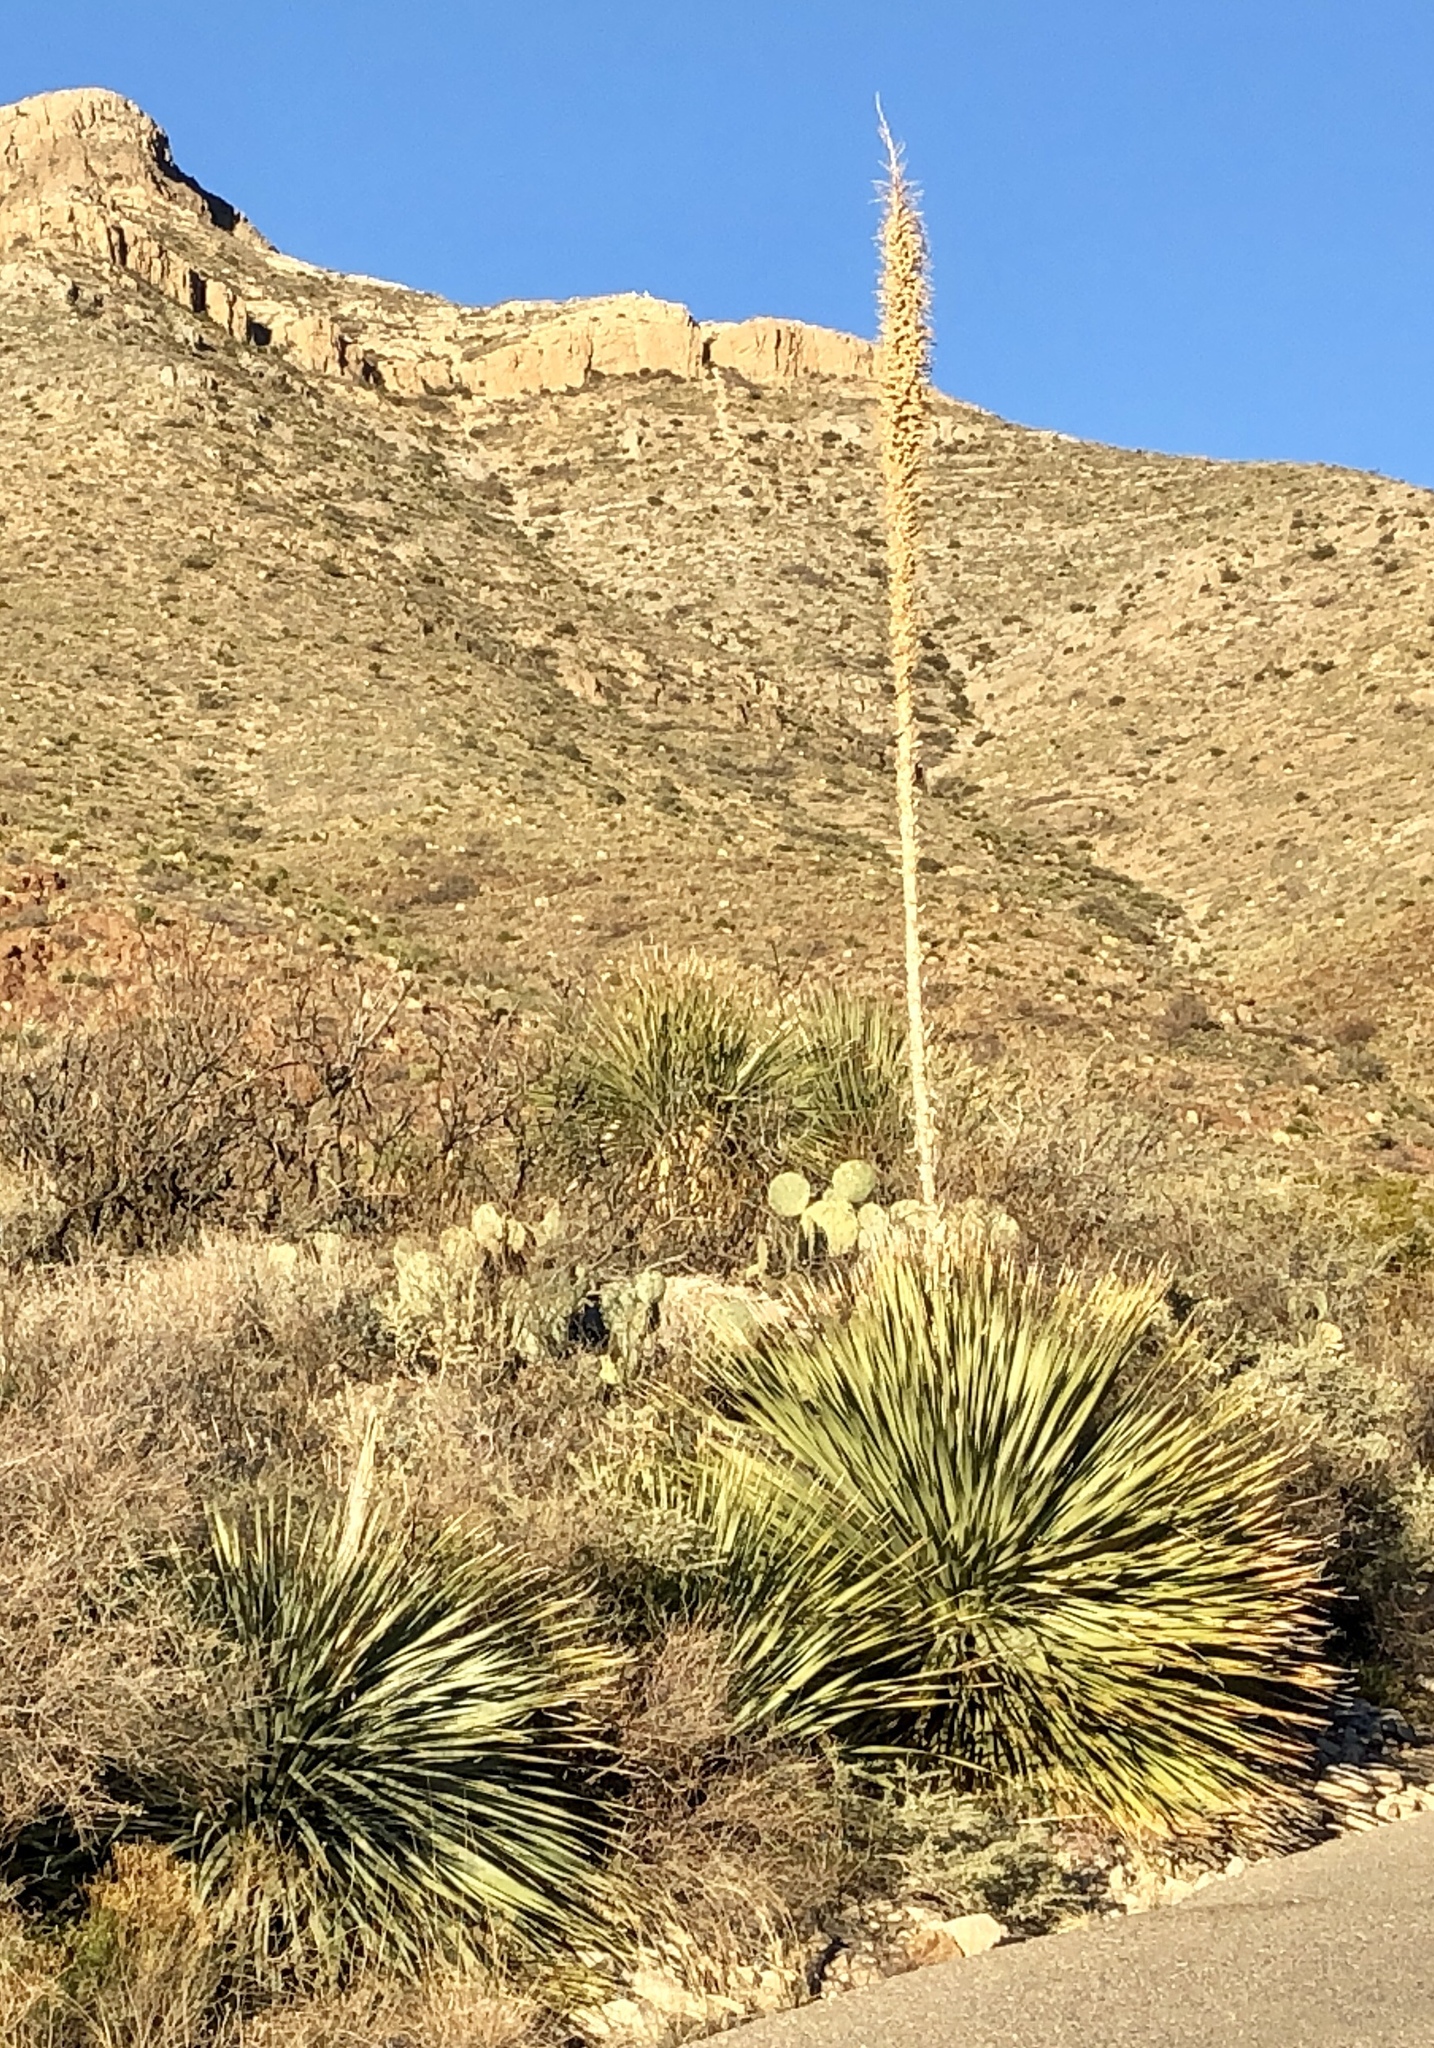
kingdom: Plantae
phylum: Tracheophyta
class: Liliopsida
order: Asparagales
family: Asparagaceae
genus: Dasylirion
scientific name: Dasylirion wheeleri
